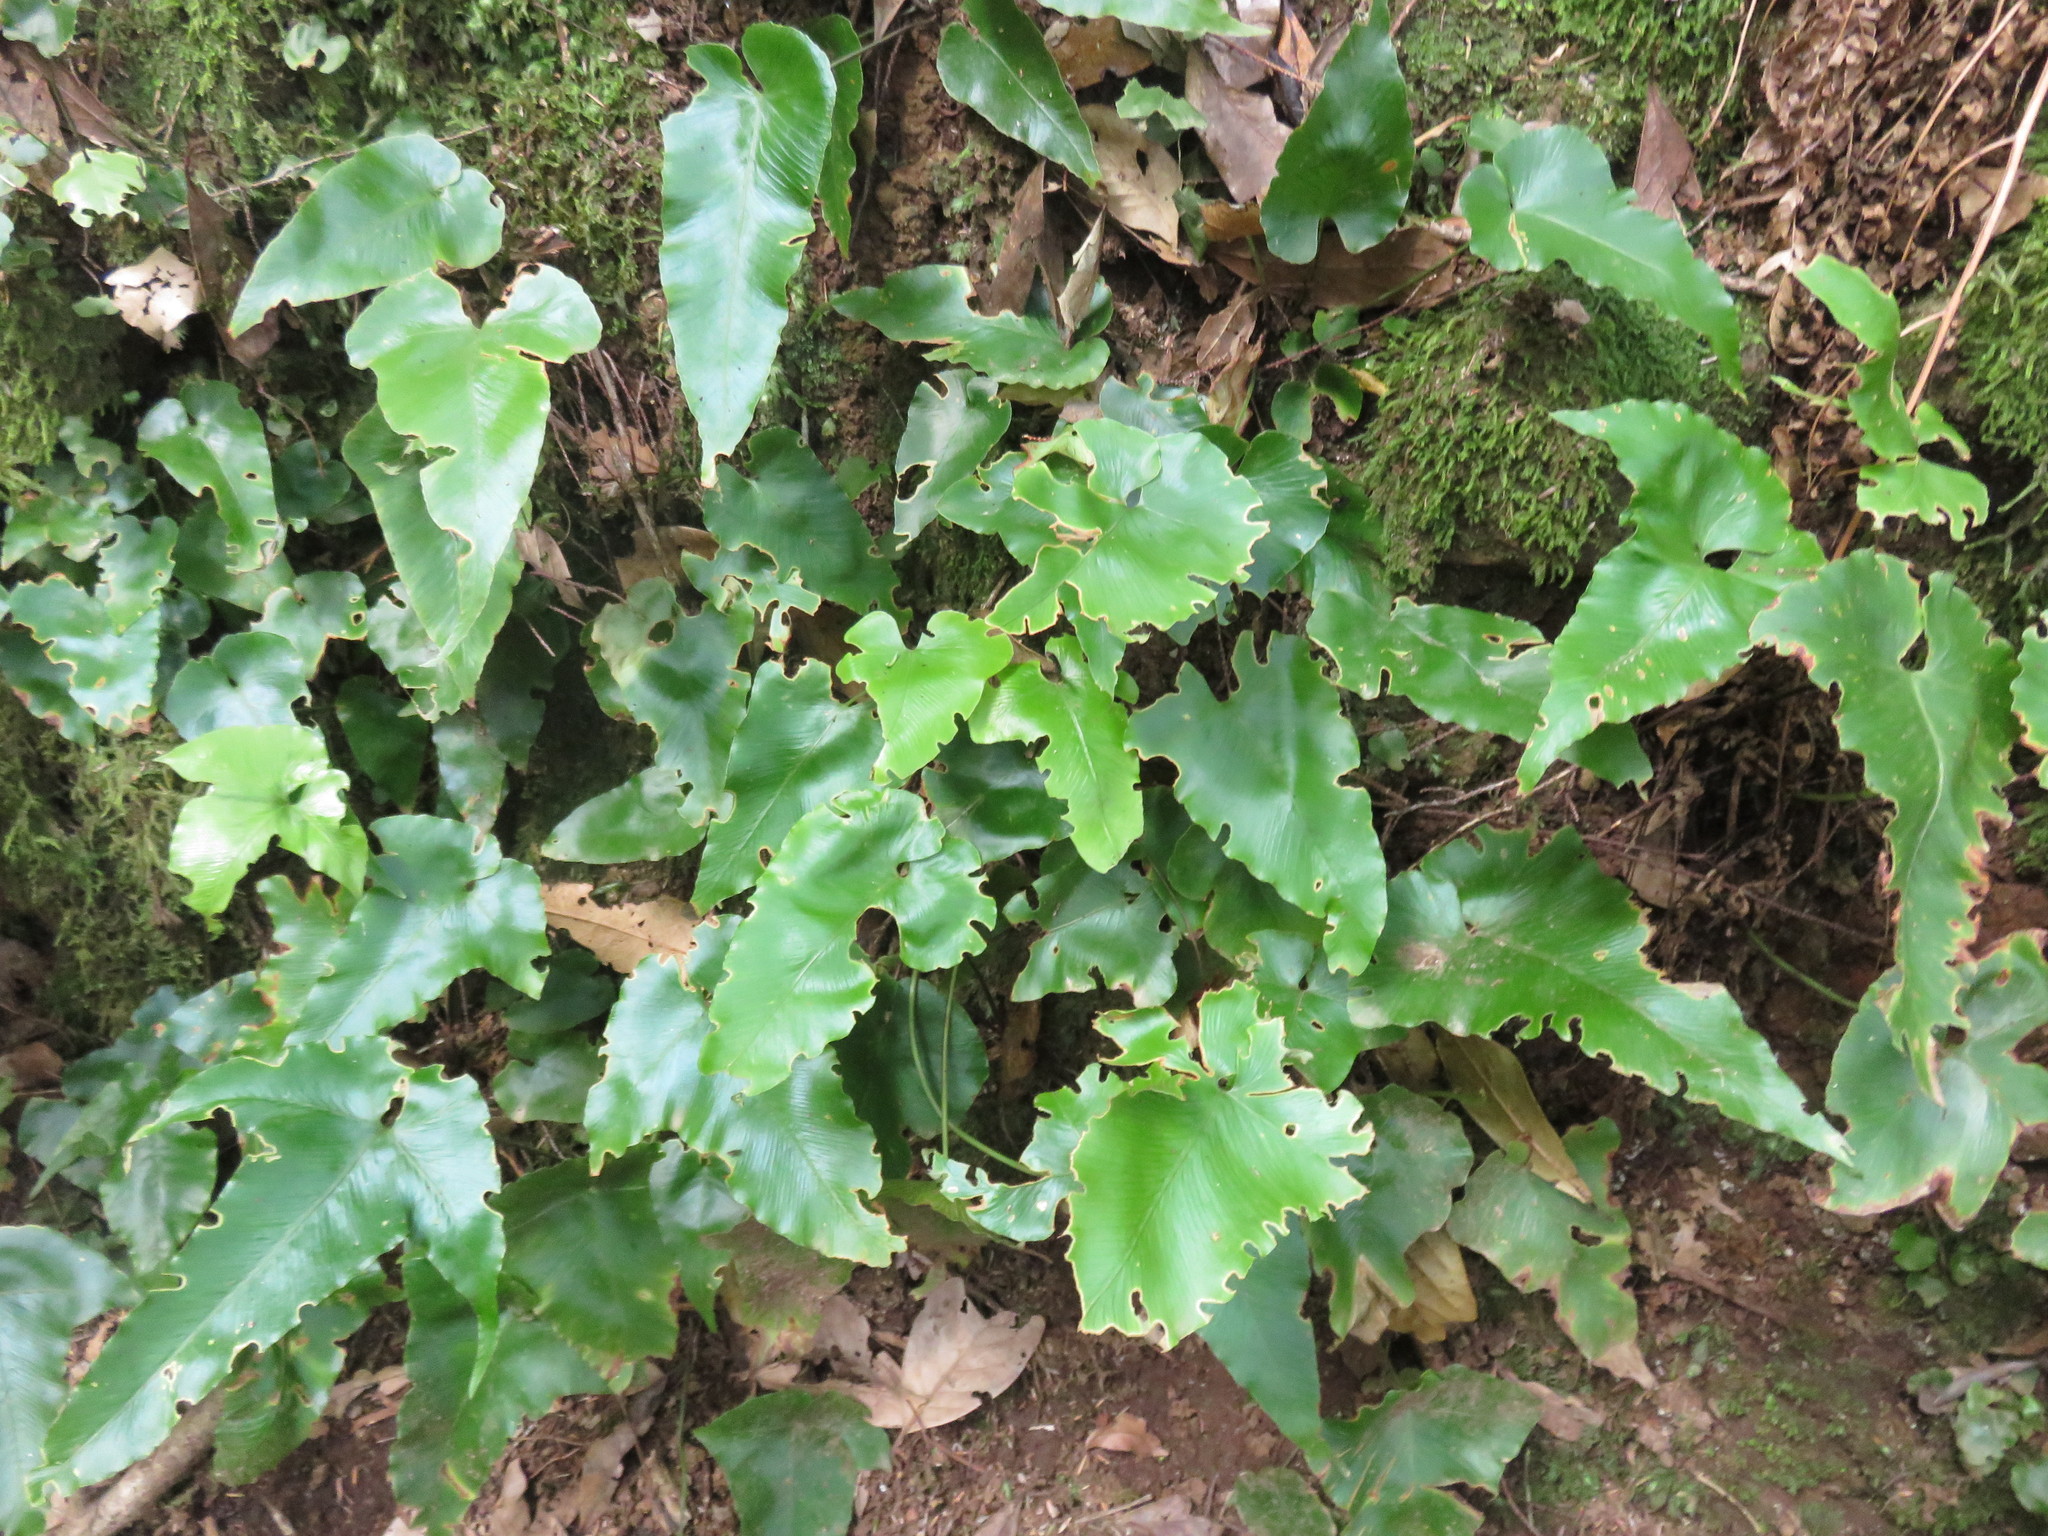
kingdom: Plantae
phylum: Tracheophyta
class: Polypodiopsida
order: Polypodiales
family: Aspleniaceae
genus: Asplenium
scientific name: Asplenium hemionitis
